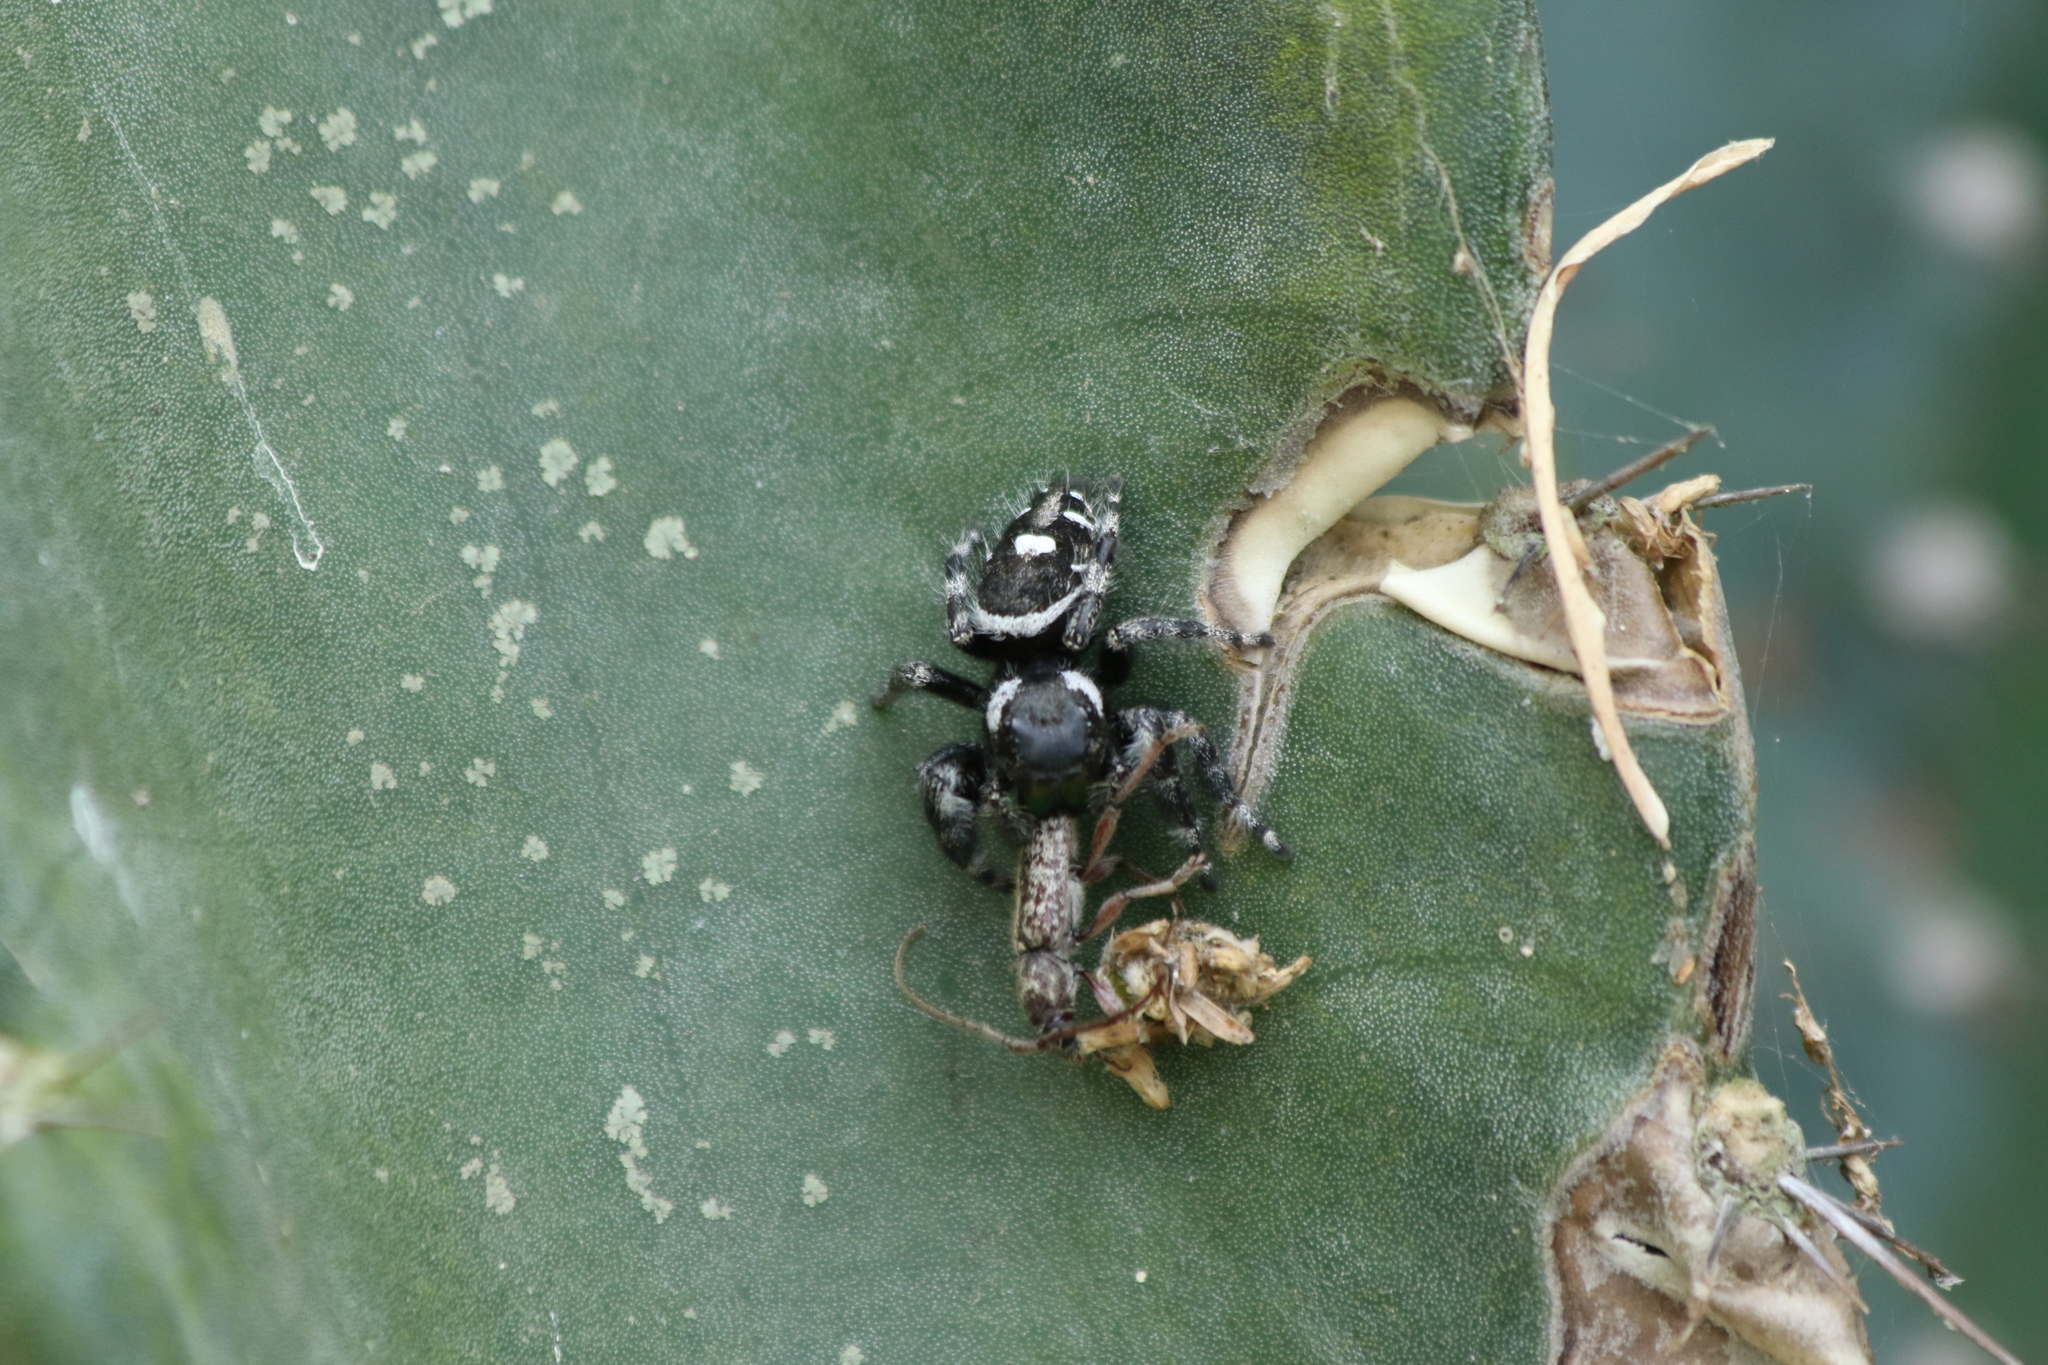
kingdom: Animalia
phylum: Arthropoda
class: Arachnida
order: Araneae
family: Salticidae
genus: Phidippus
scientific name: Phidippus audax
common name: Bold jumper
